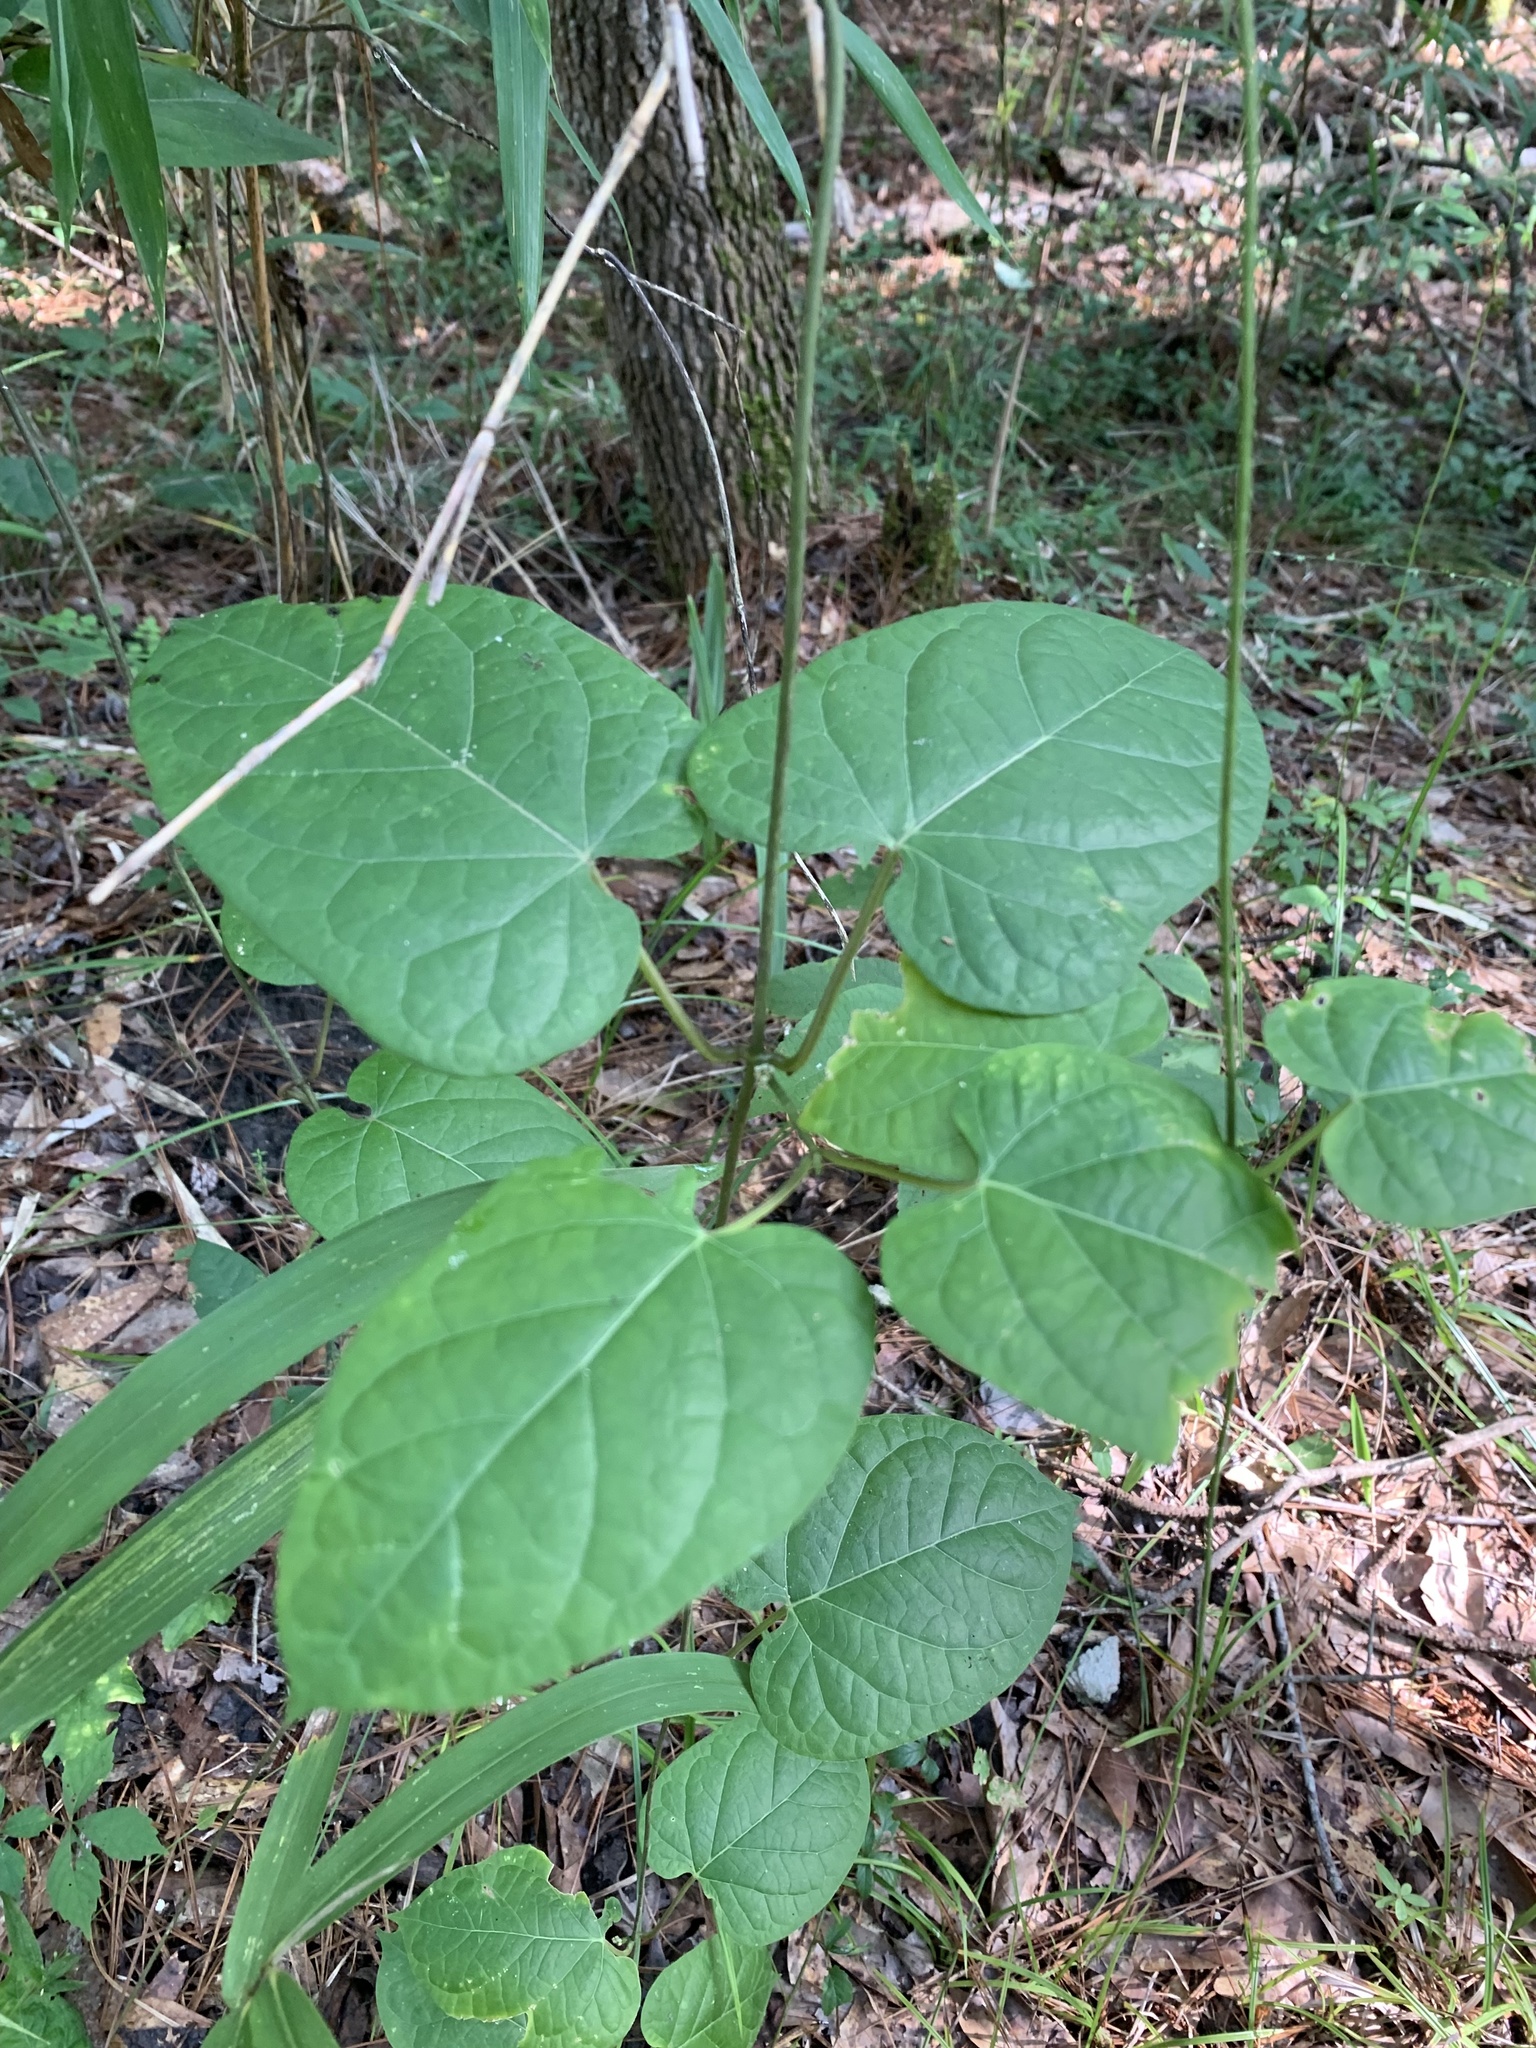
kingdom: Plantae
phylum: Tracheophyta
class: Magnoliopsida
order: Gentianales
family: Apocynaceae
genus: Gonolobus
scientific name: Gonolobus suberosus
